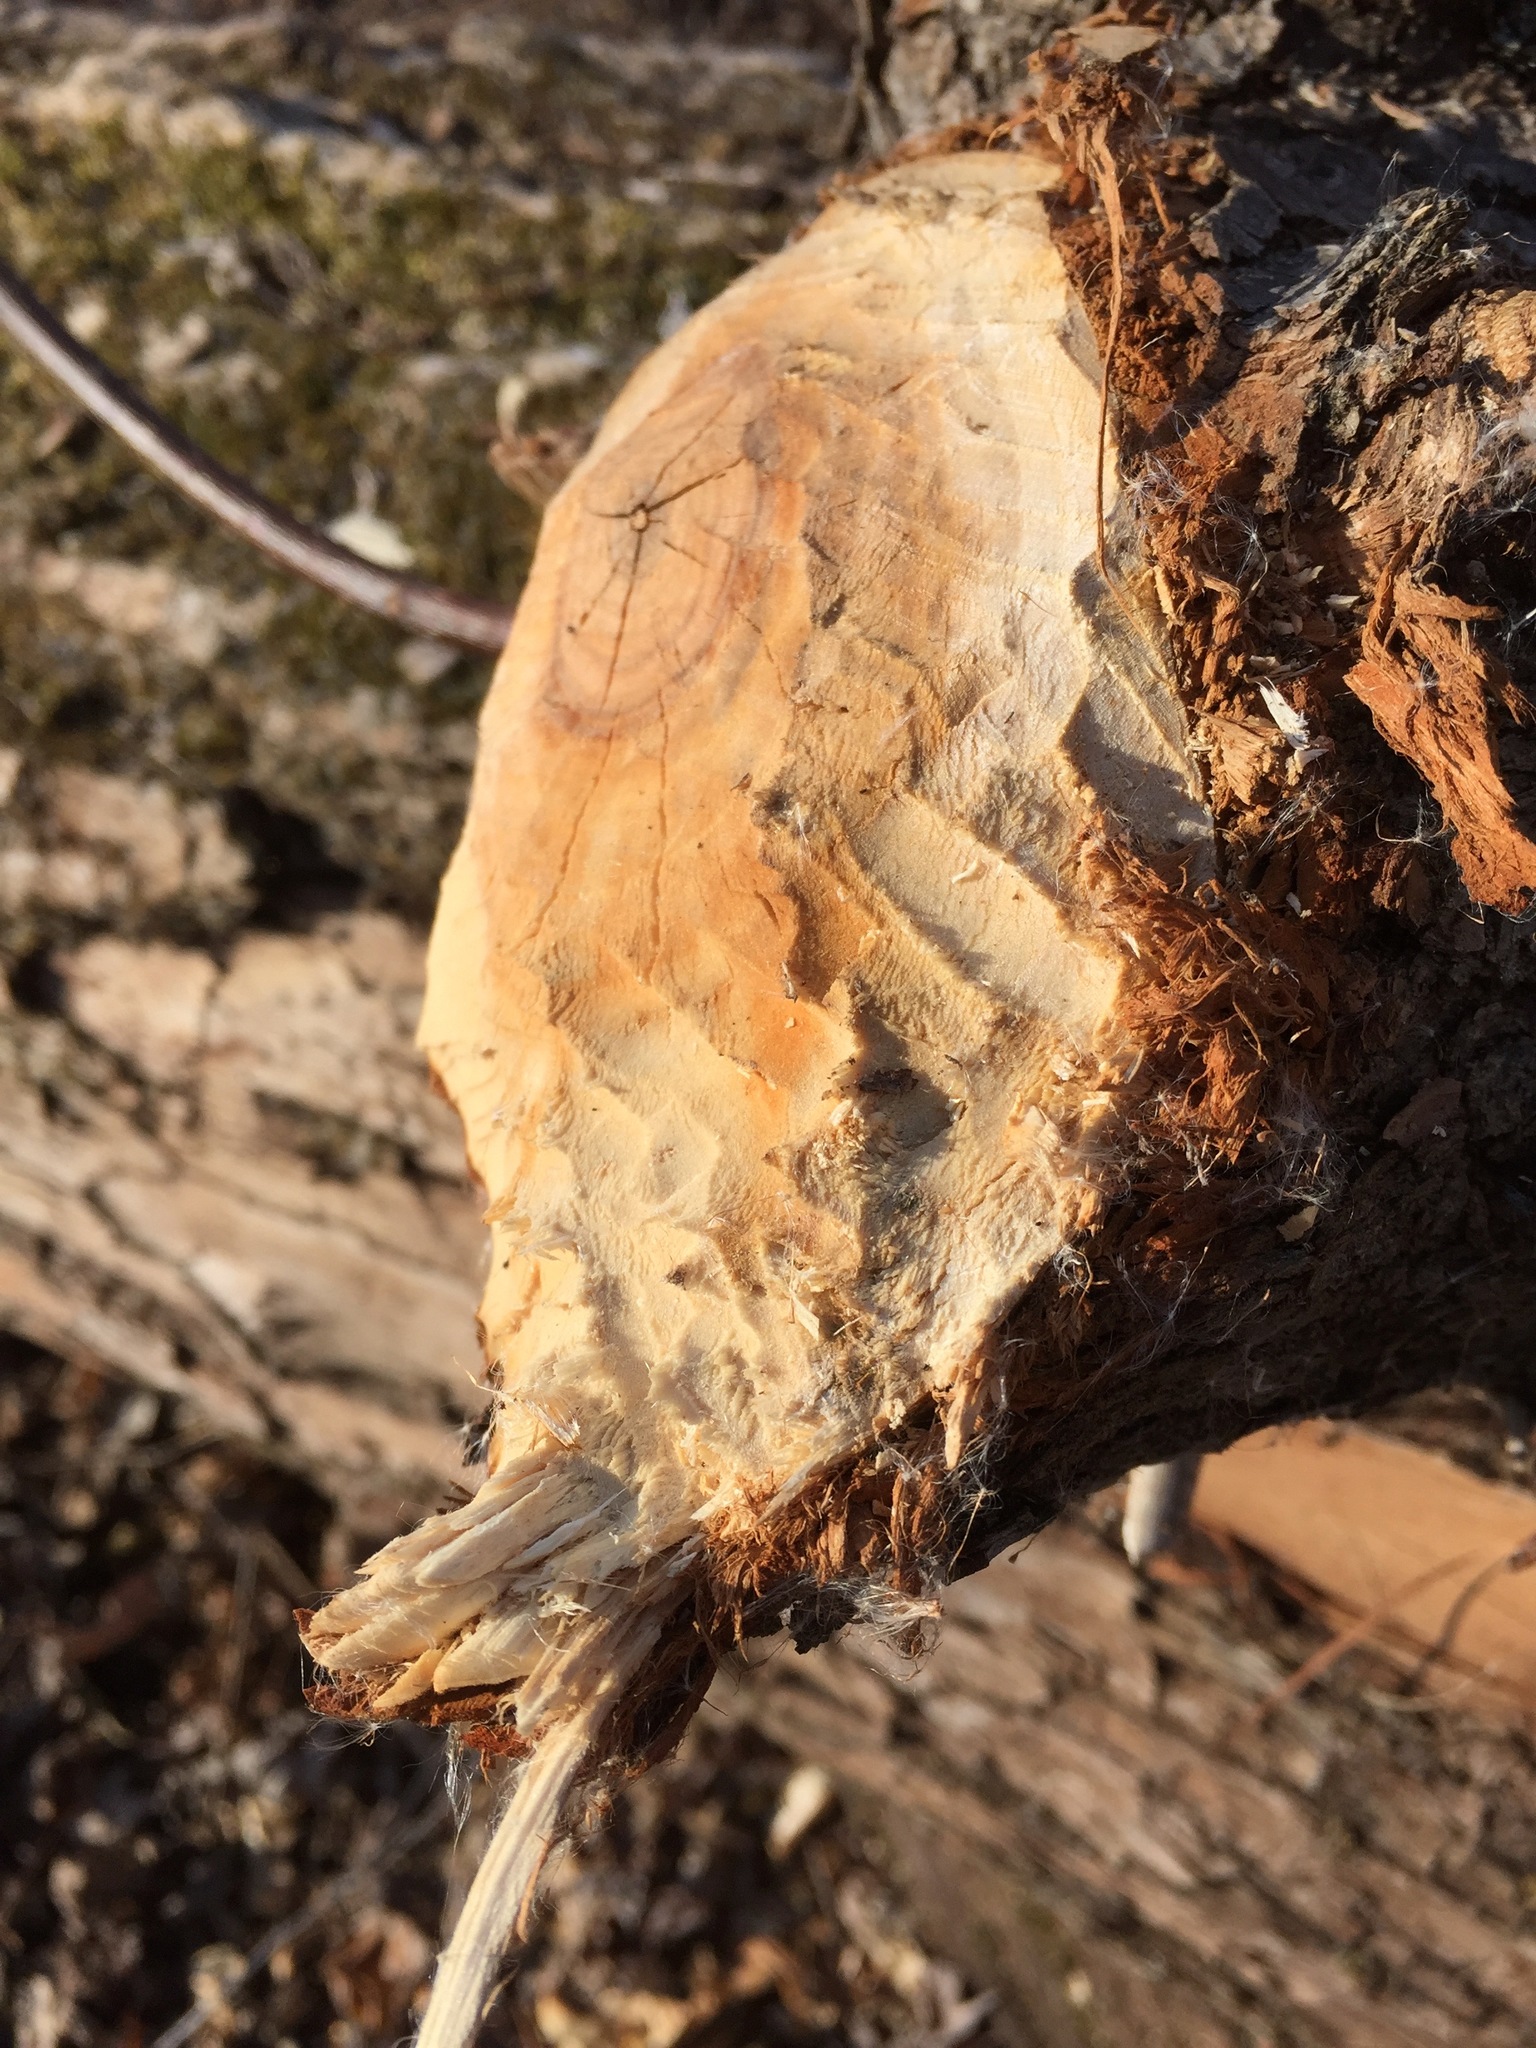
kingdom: Animalia
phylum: Chordata
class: Mammalia
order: Rodentia
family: Castoridae
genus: Castor
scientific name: Castor canadensis
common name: American beaver
